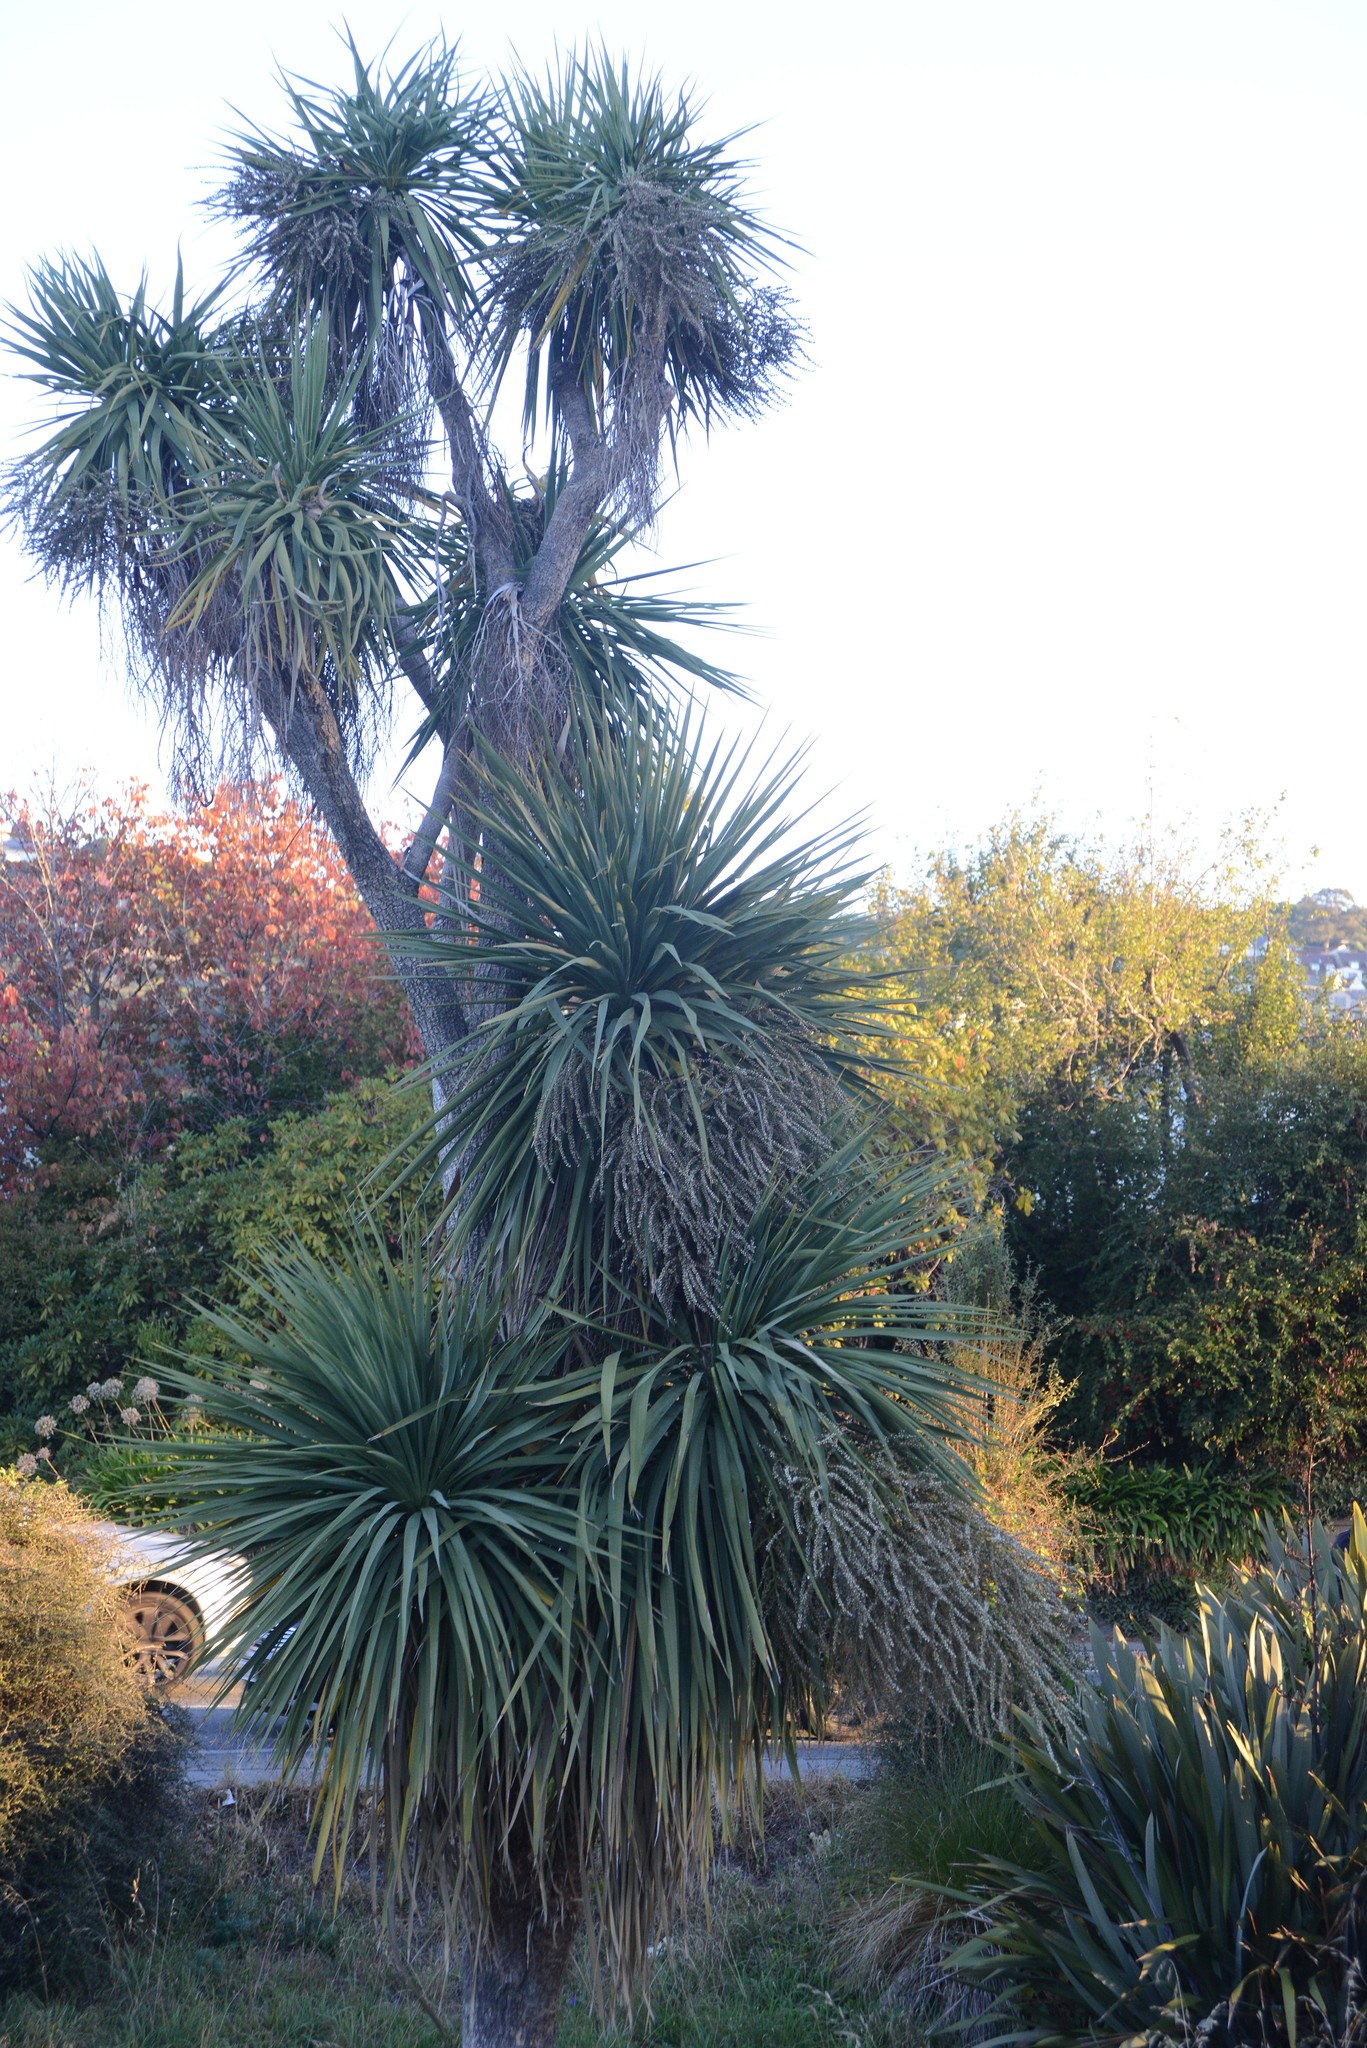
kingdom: Plantae
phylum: Tracheophyta
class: Liliopsida
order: Asparagales
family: Asparagaceae
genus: Cordyline
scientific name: Cordyline australis
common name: Cabbage-palm
